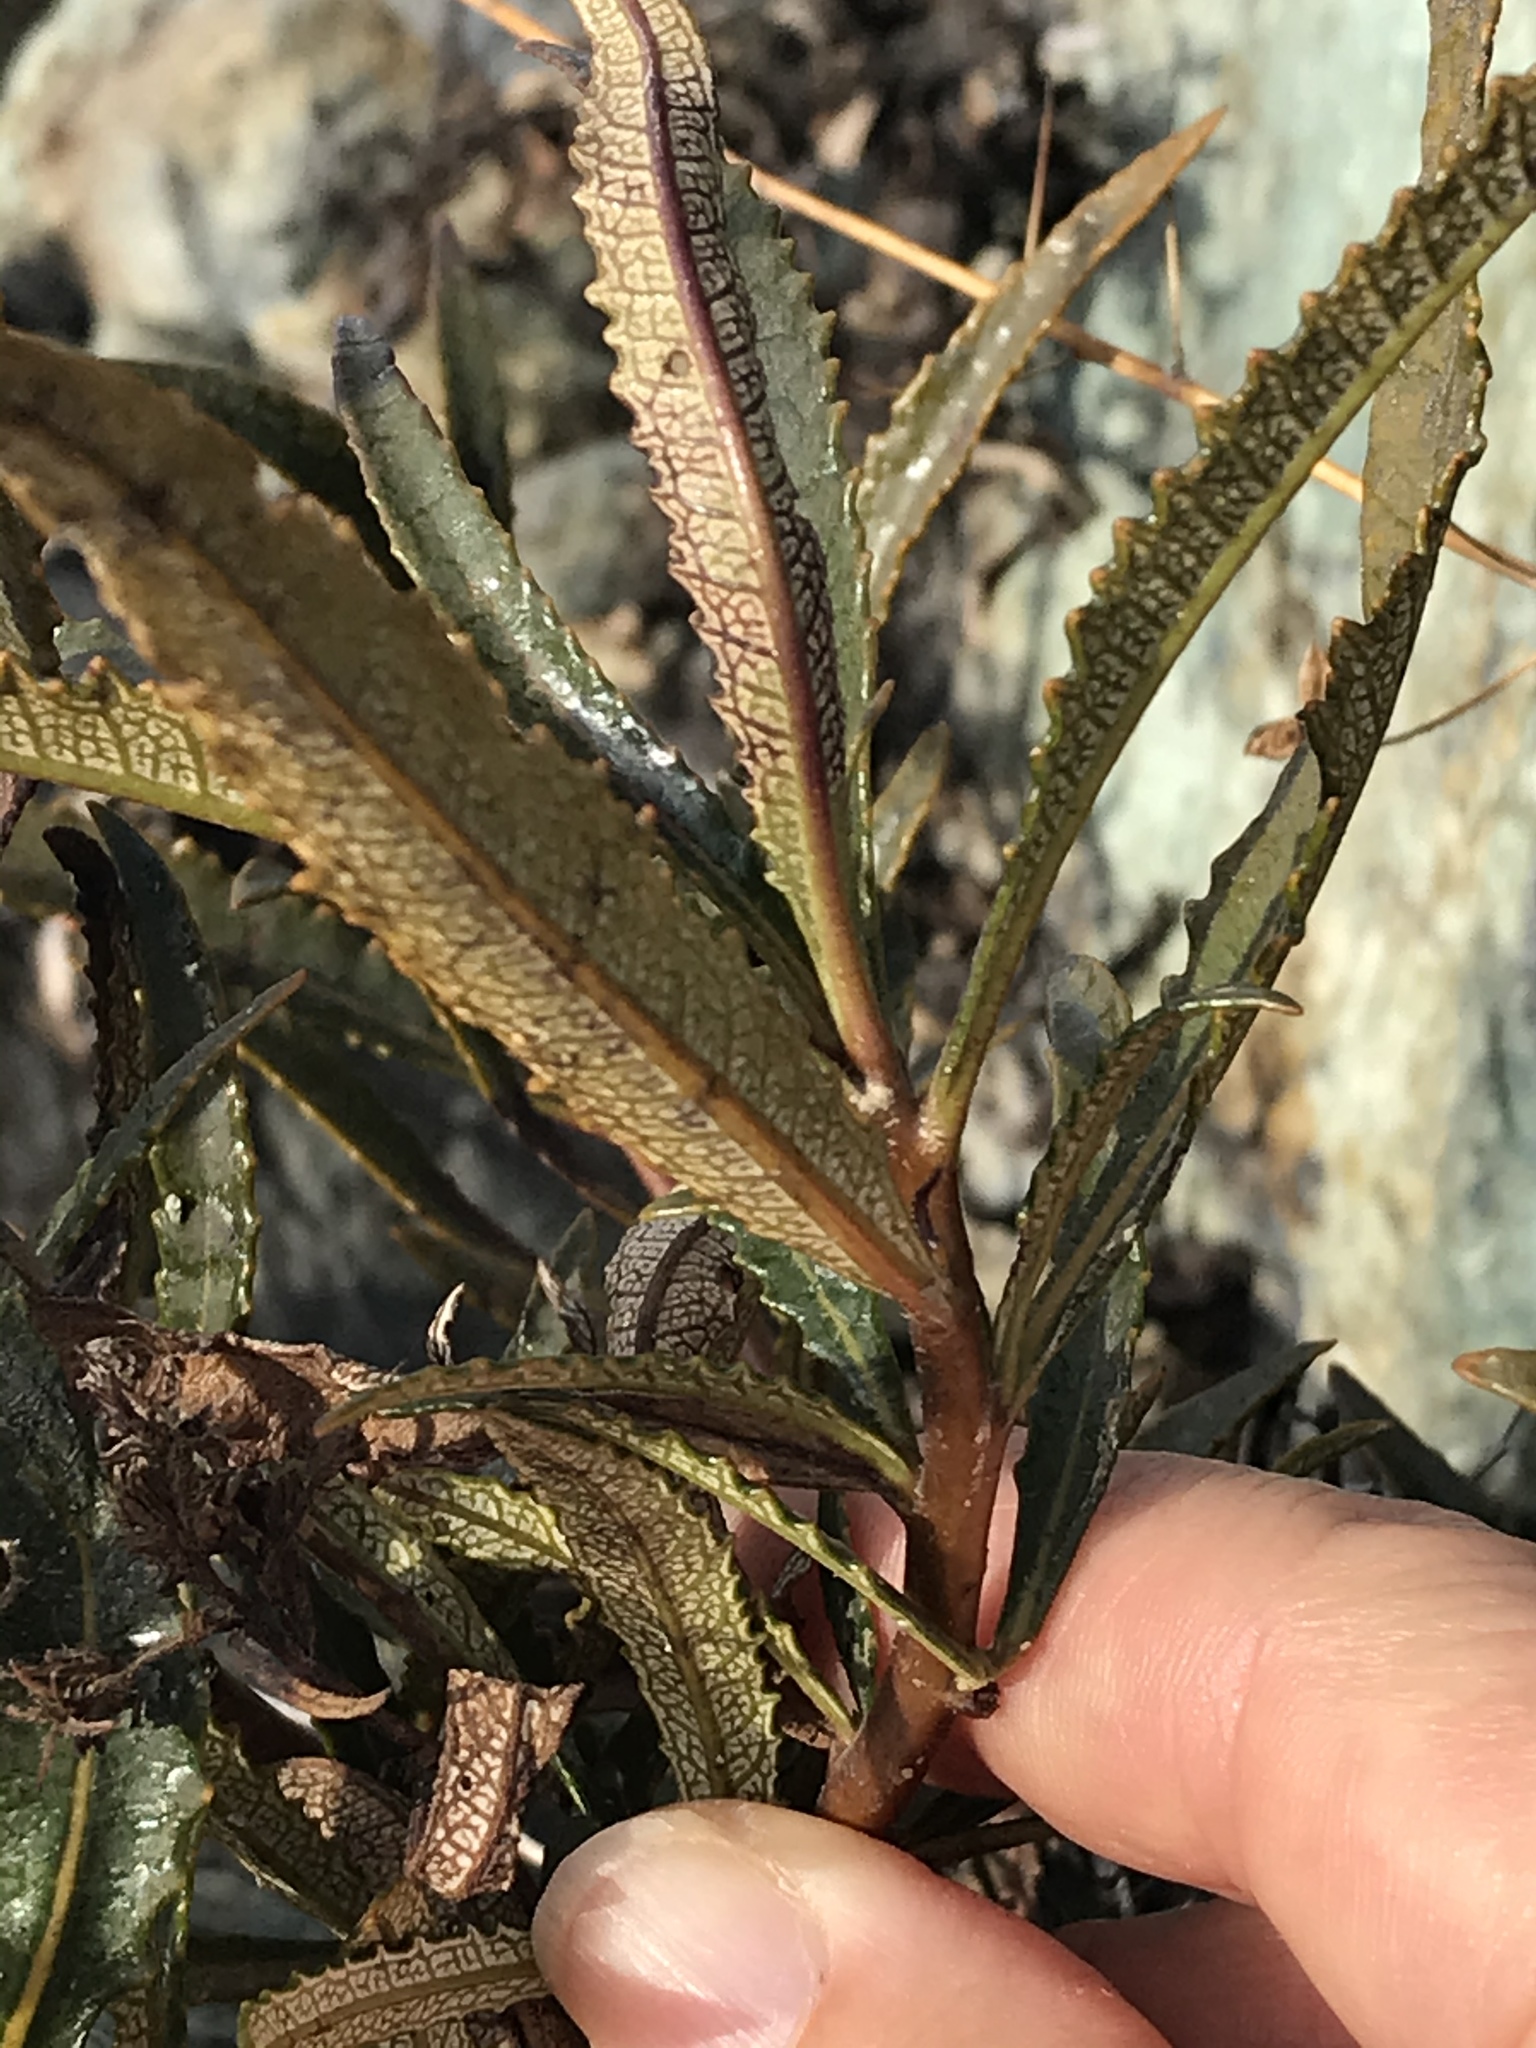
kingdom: Plantae
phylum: Tracheophyta
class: Magnoliopsida
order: Boraginales
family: Namaceae
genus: Eriodictyon
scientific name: Eriodictyon californicum
